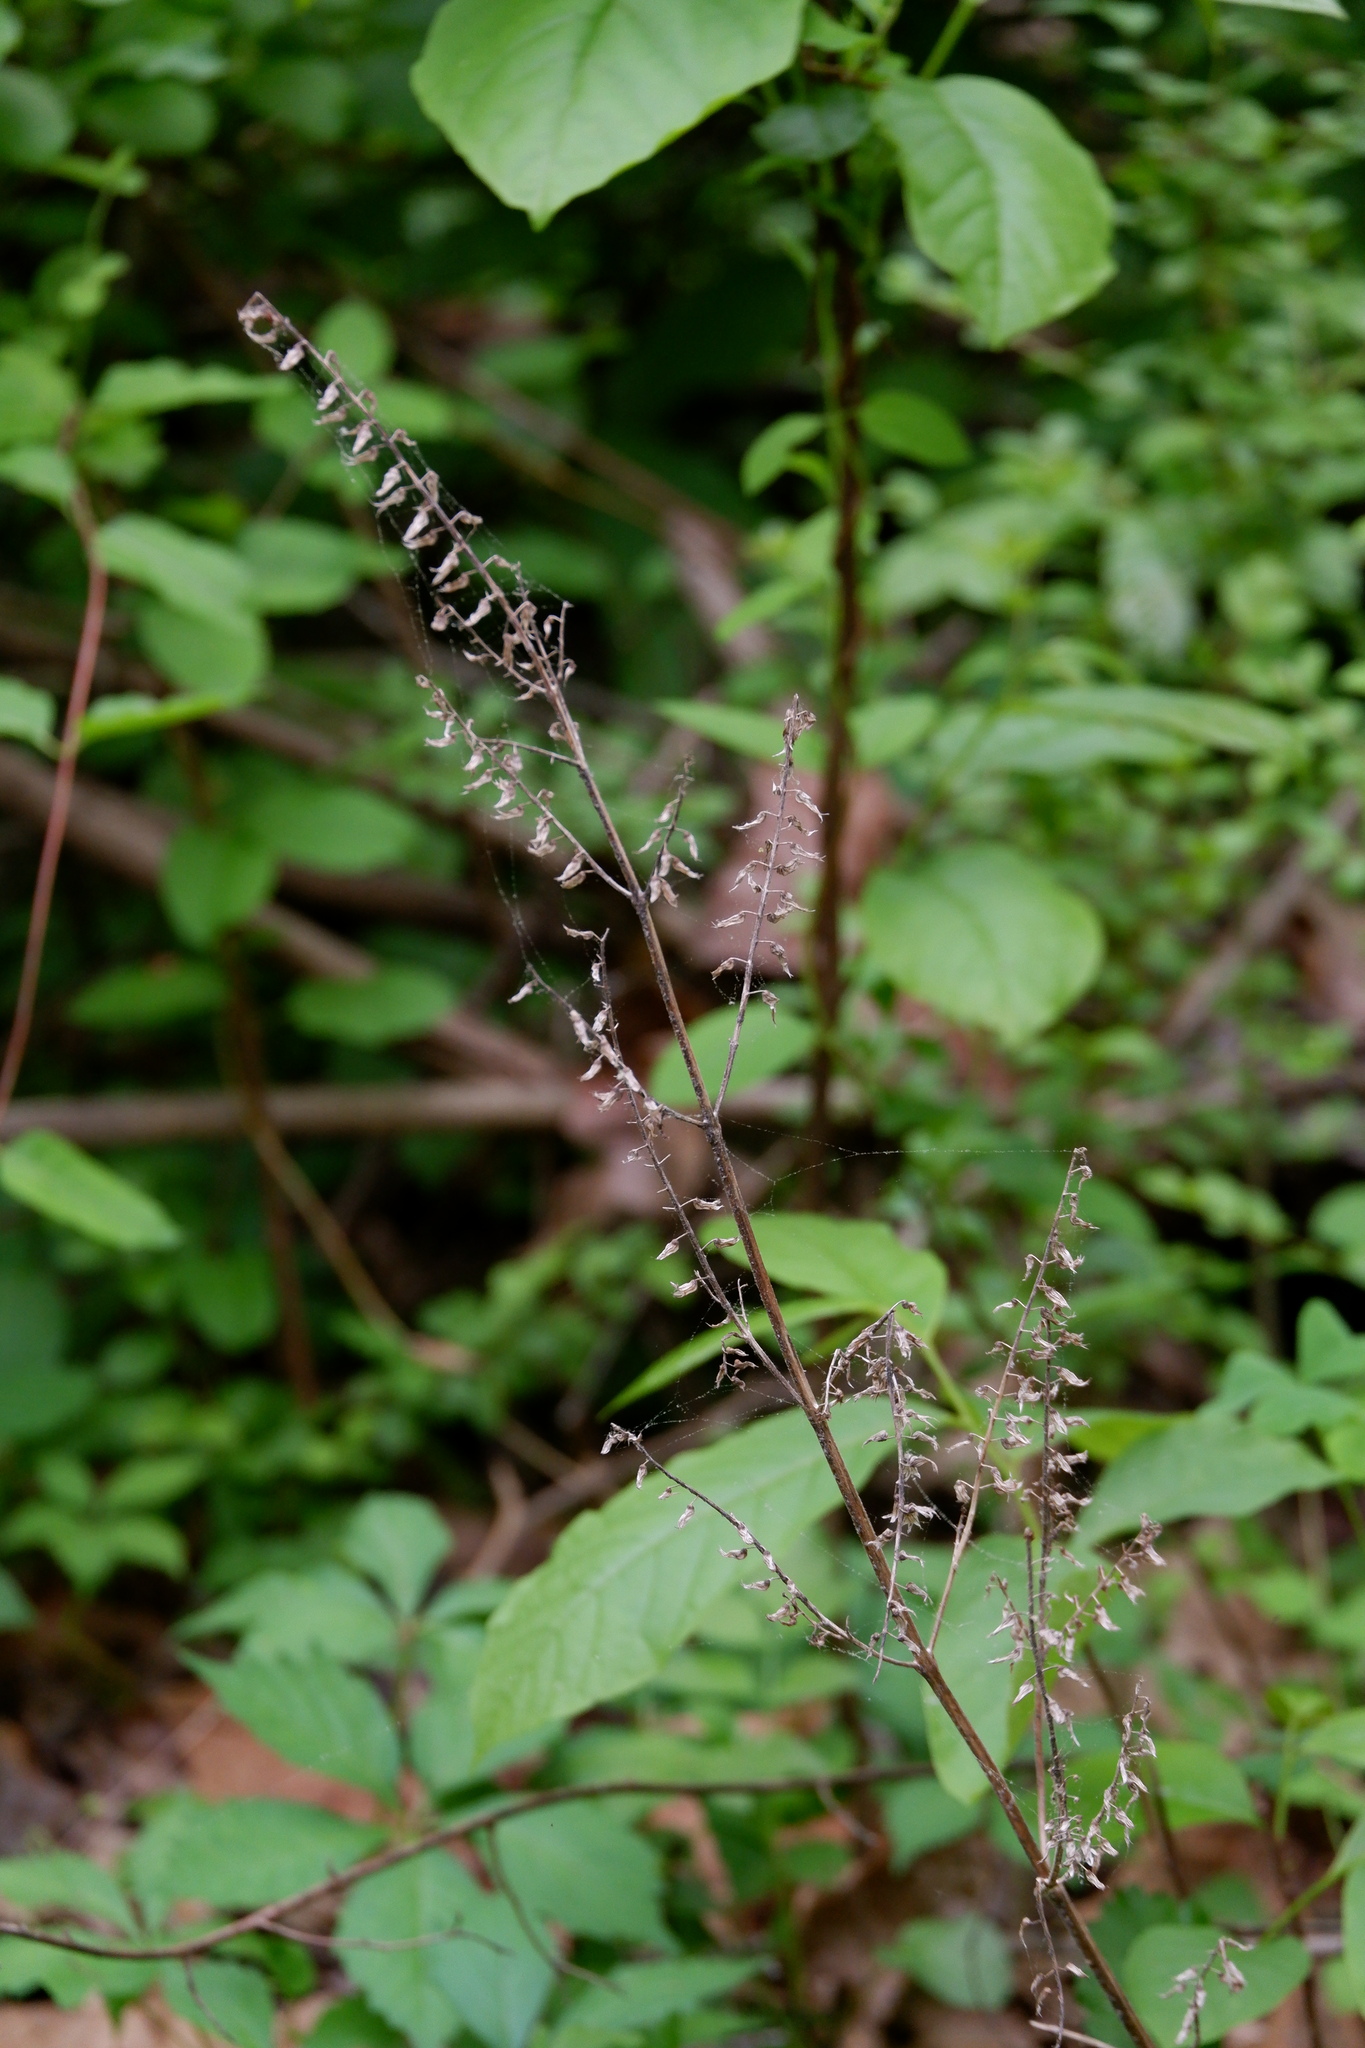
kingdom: Plantae
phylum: Tracheophyta
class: Magnoliopsida
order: Lamiales
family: Lamiaceae
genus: Perilla
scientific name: Perilla frutescens
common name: Perilla
